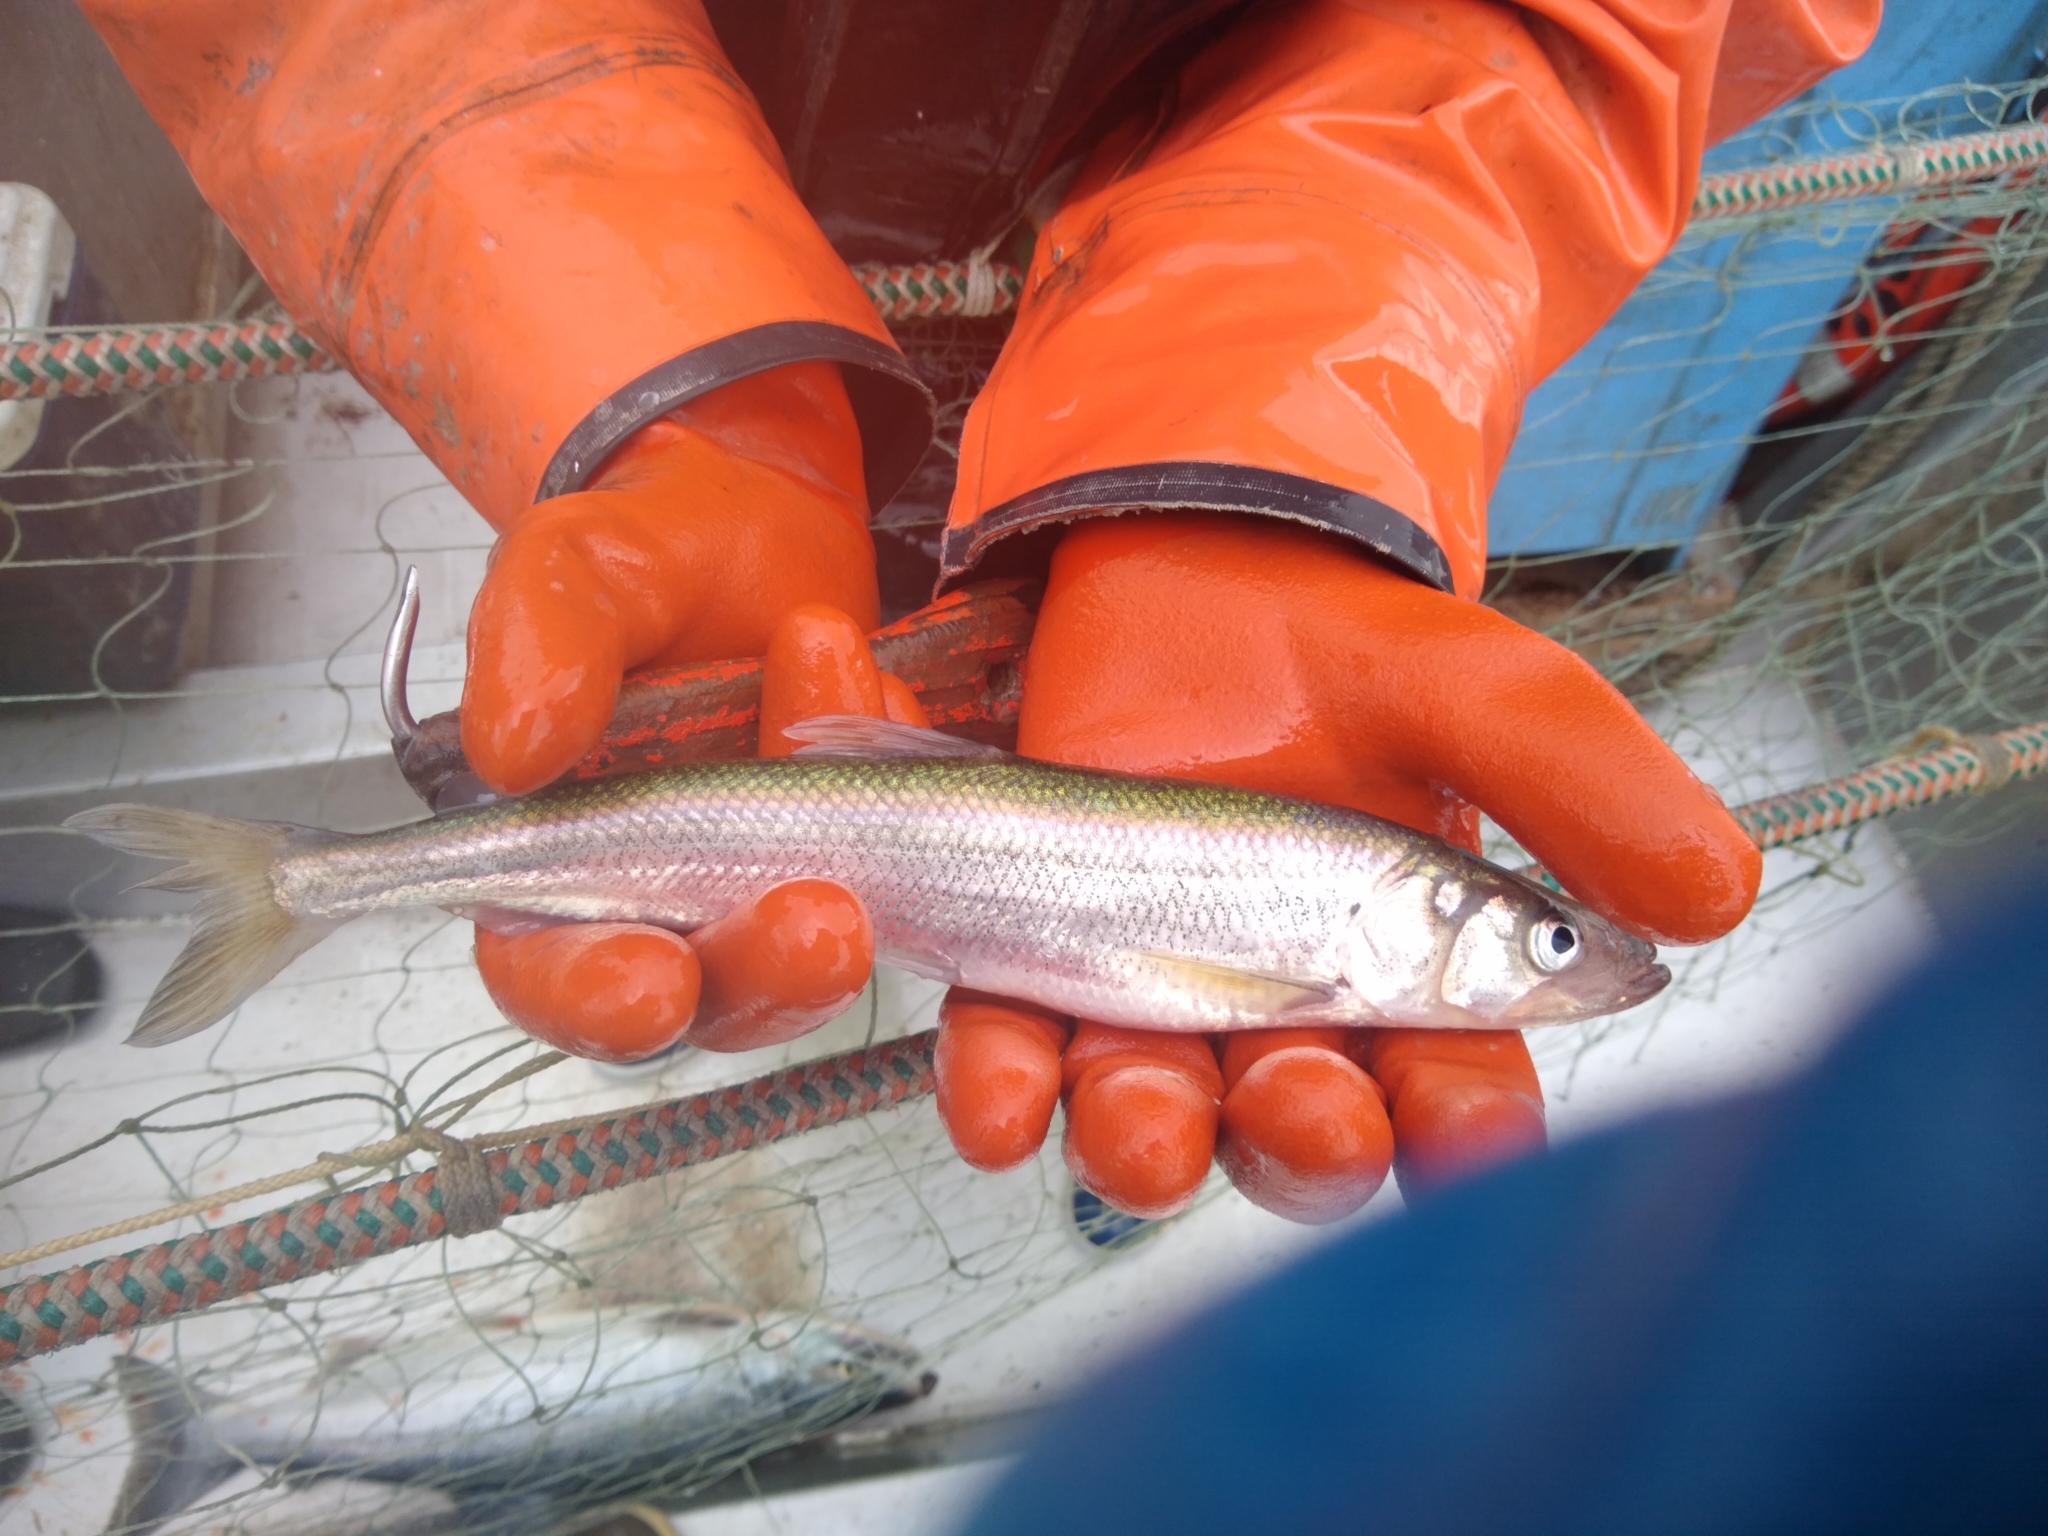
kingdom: Animalia
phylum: Chordata
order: Osmeriformes
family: Osmeridae
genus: Osmerus
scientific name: Osmerus dentex
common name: Rainbow smelt
